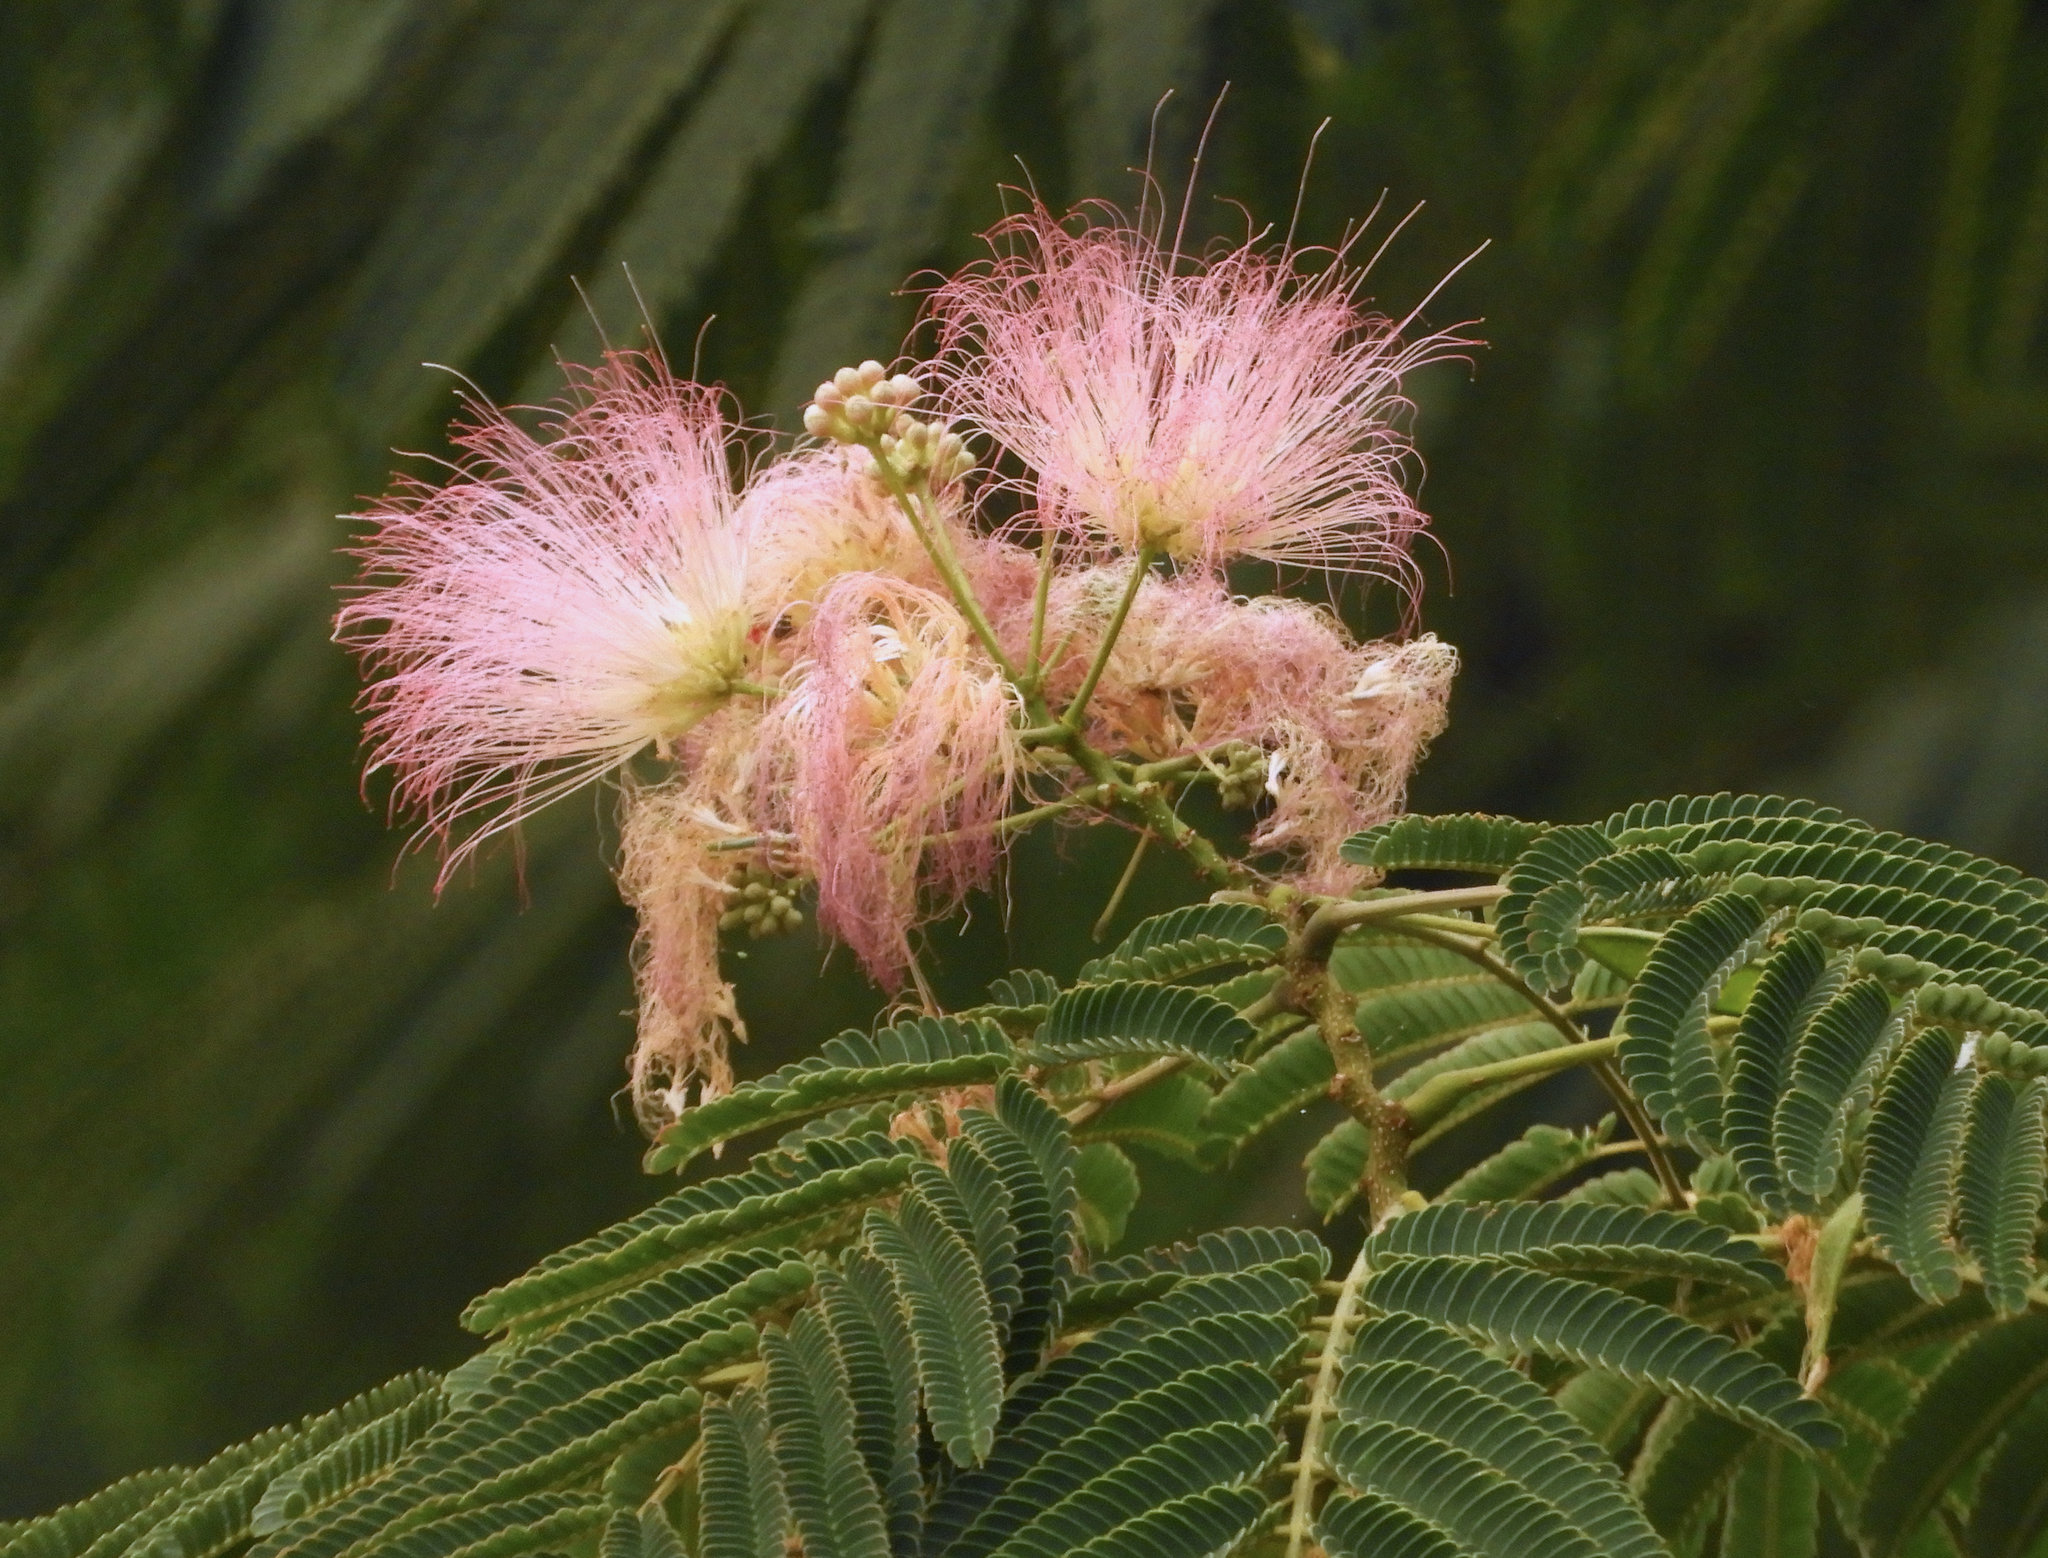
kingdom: Plantae
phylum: Tracheophyta
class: Magnoliopsida
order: Fabales
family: Fabaceae
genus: Albizia
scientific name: Albizia julibrissin
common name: Silktree
